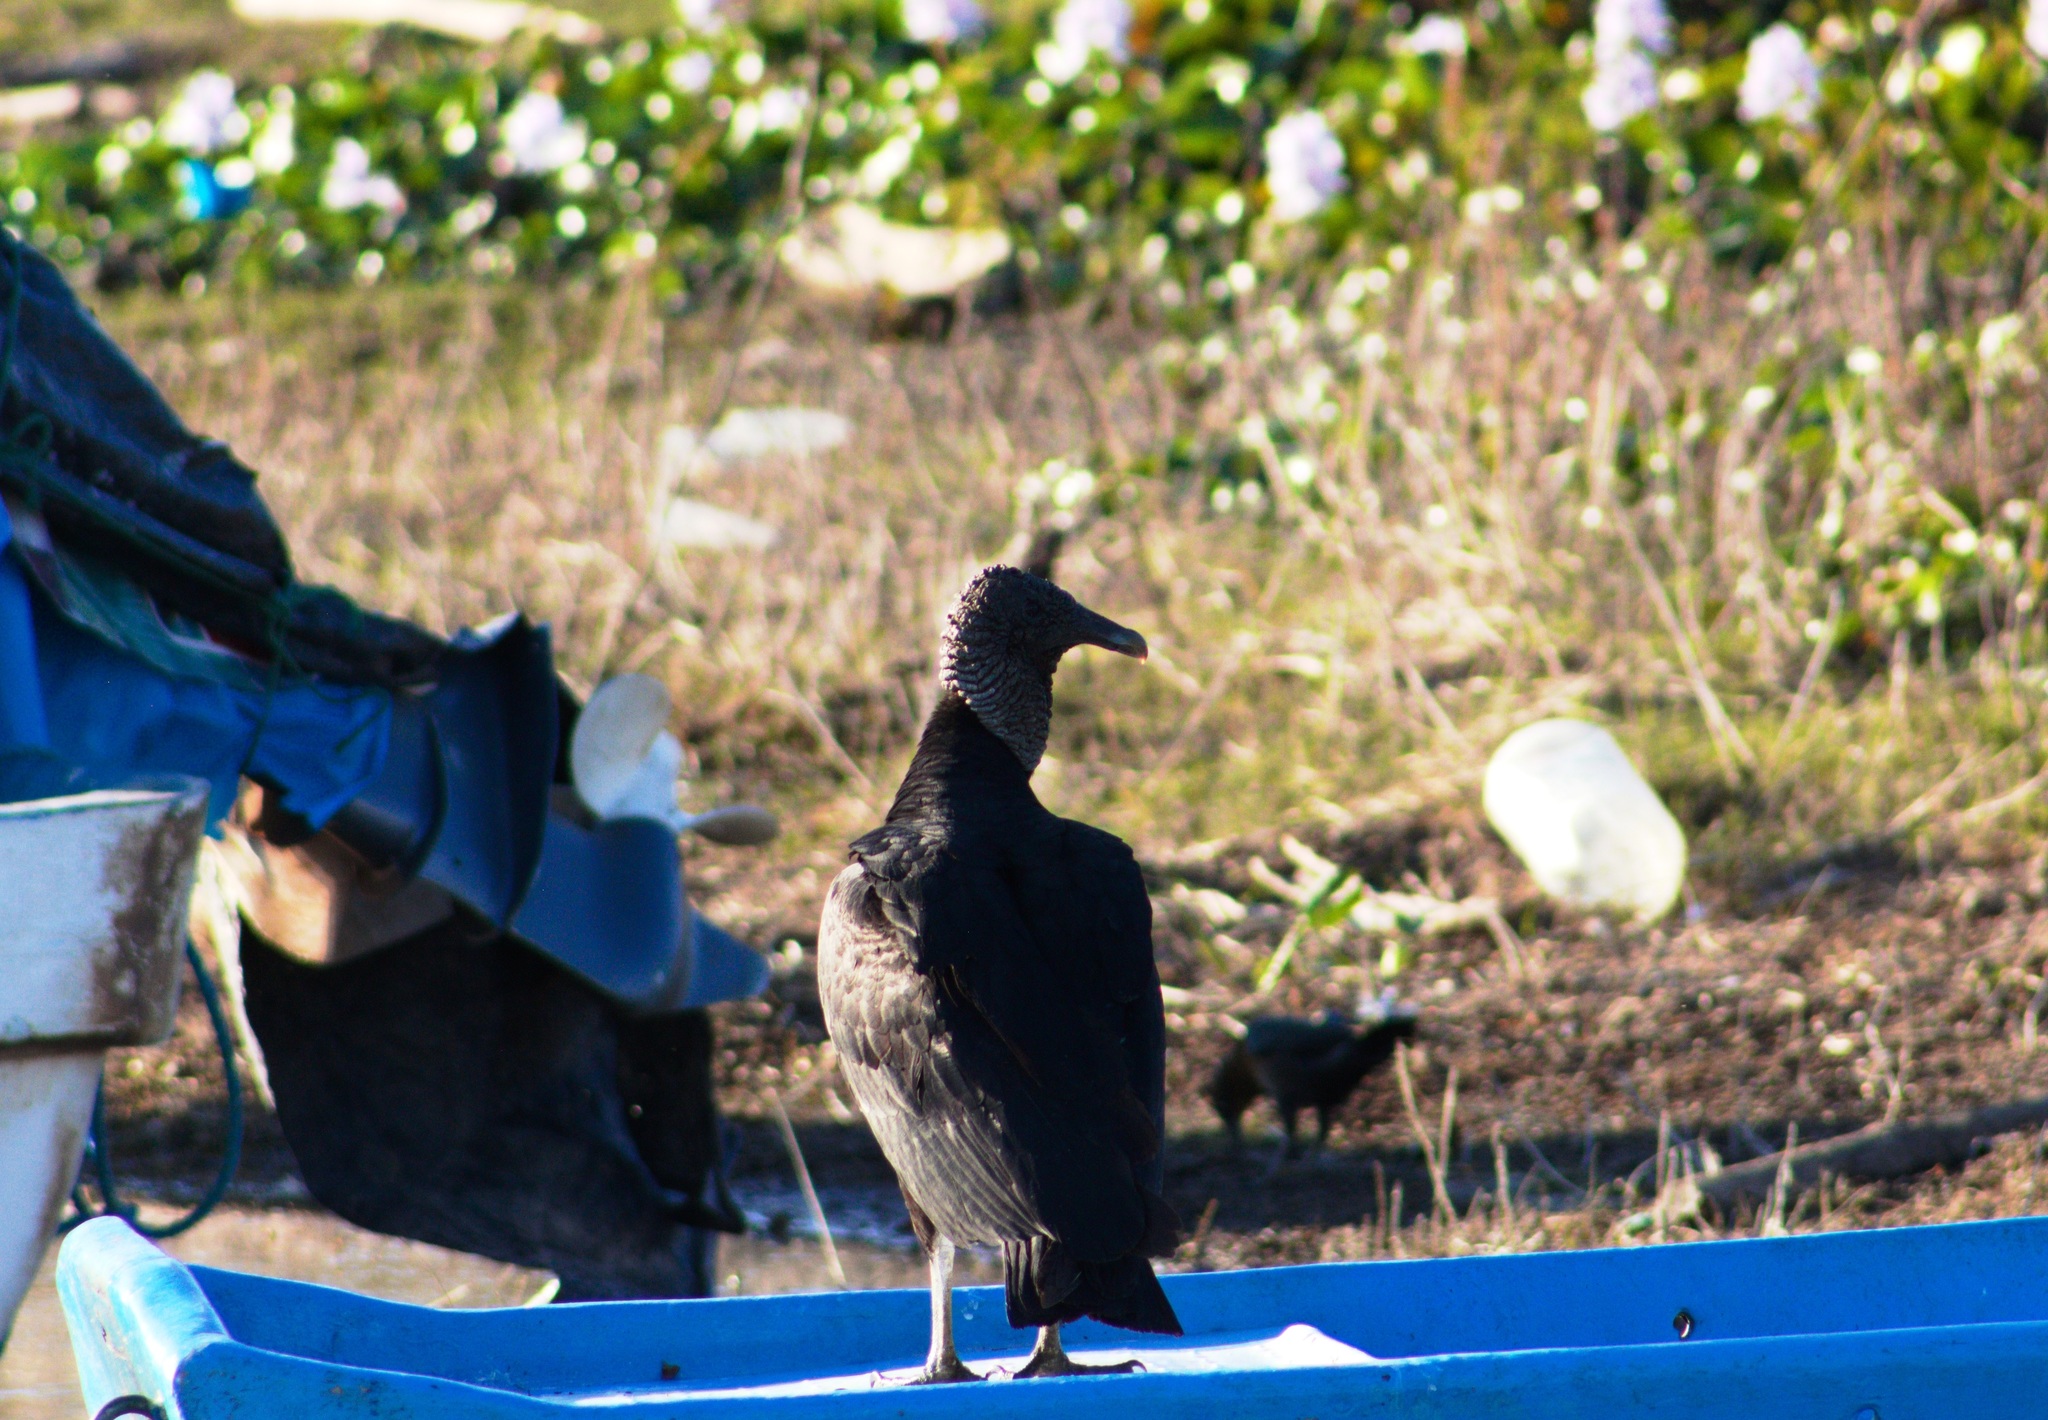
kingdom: Animalia
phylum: Chordata
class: Aves
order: Accipitriformes
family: Cathartidae
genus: Coragyps
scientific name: Coragyps atratus
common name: Black vulture
